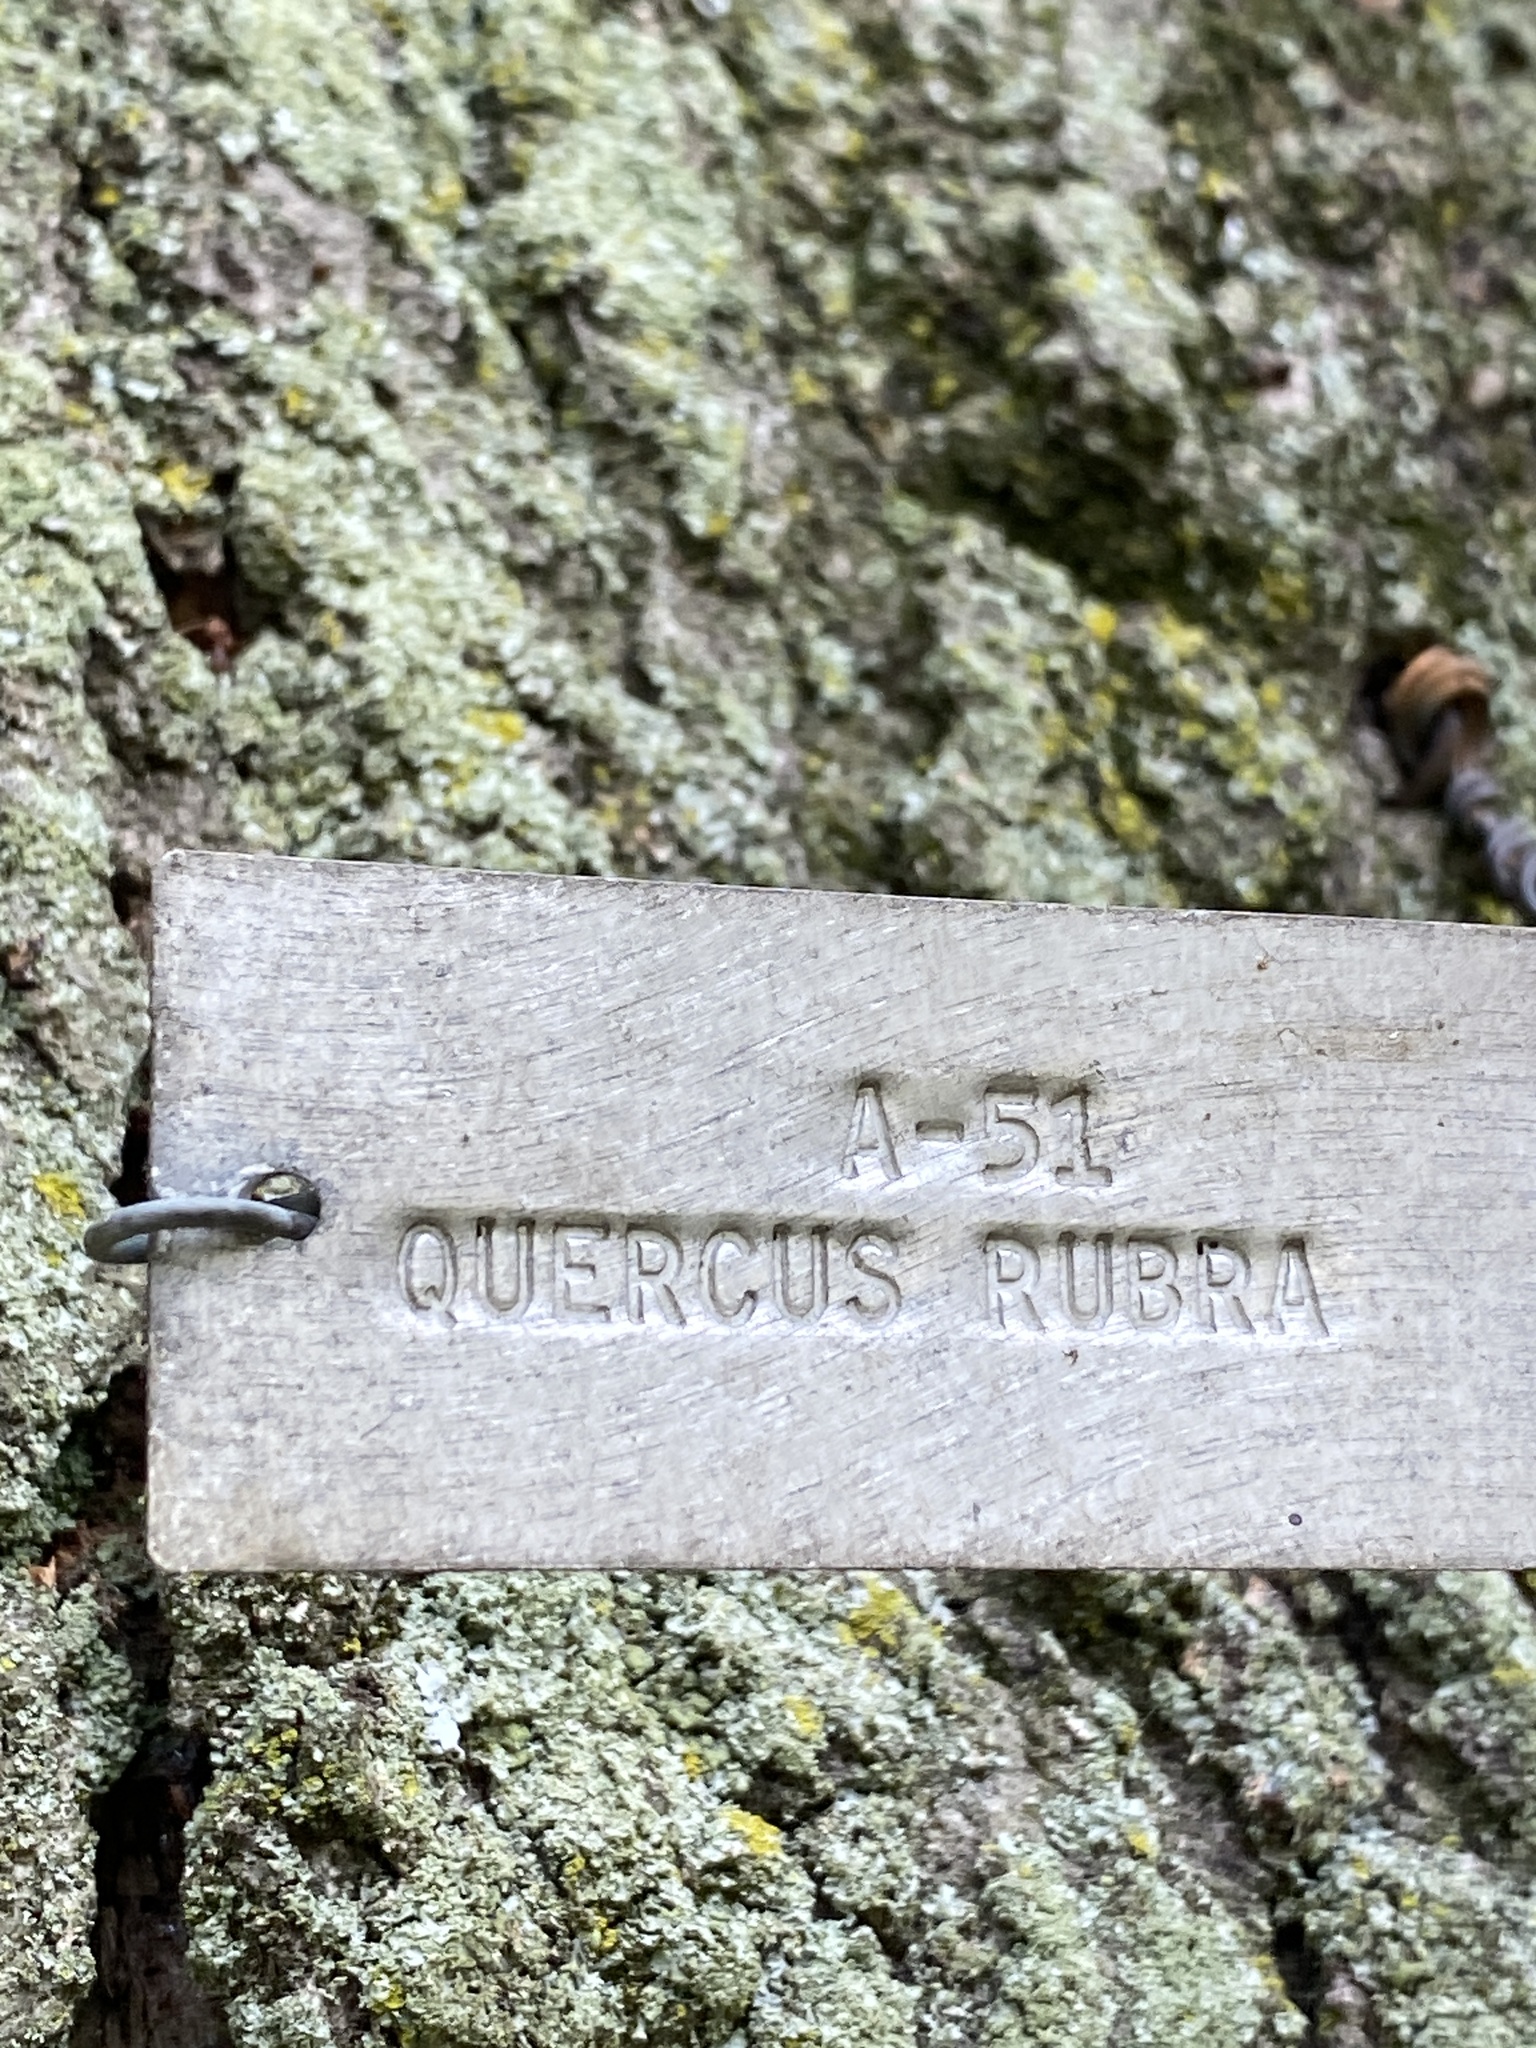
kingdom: Fungi
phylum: Basidiomycota
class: Agaricomycetes
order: Russulales
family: Bondarzewiaceae
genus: Bondarzewia
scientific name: Bondarzewia berkeleyi
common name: Berkeley's polypore
